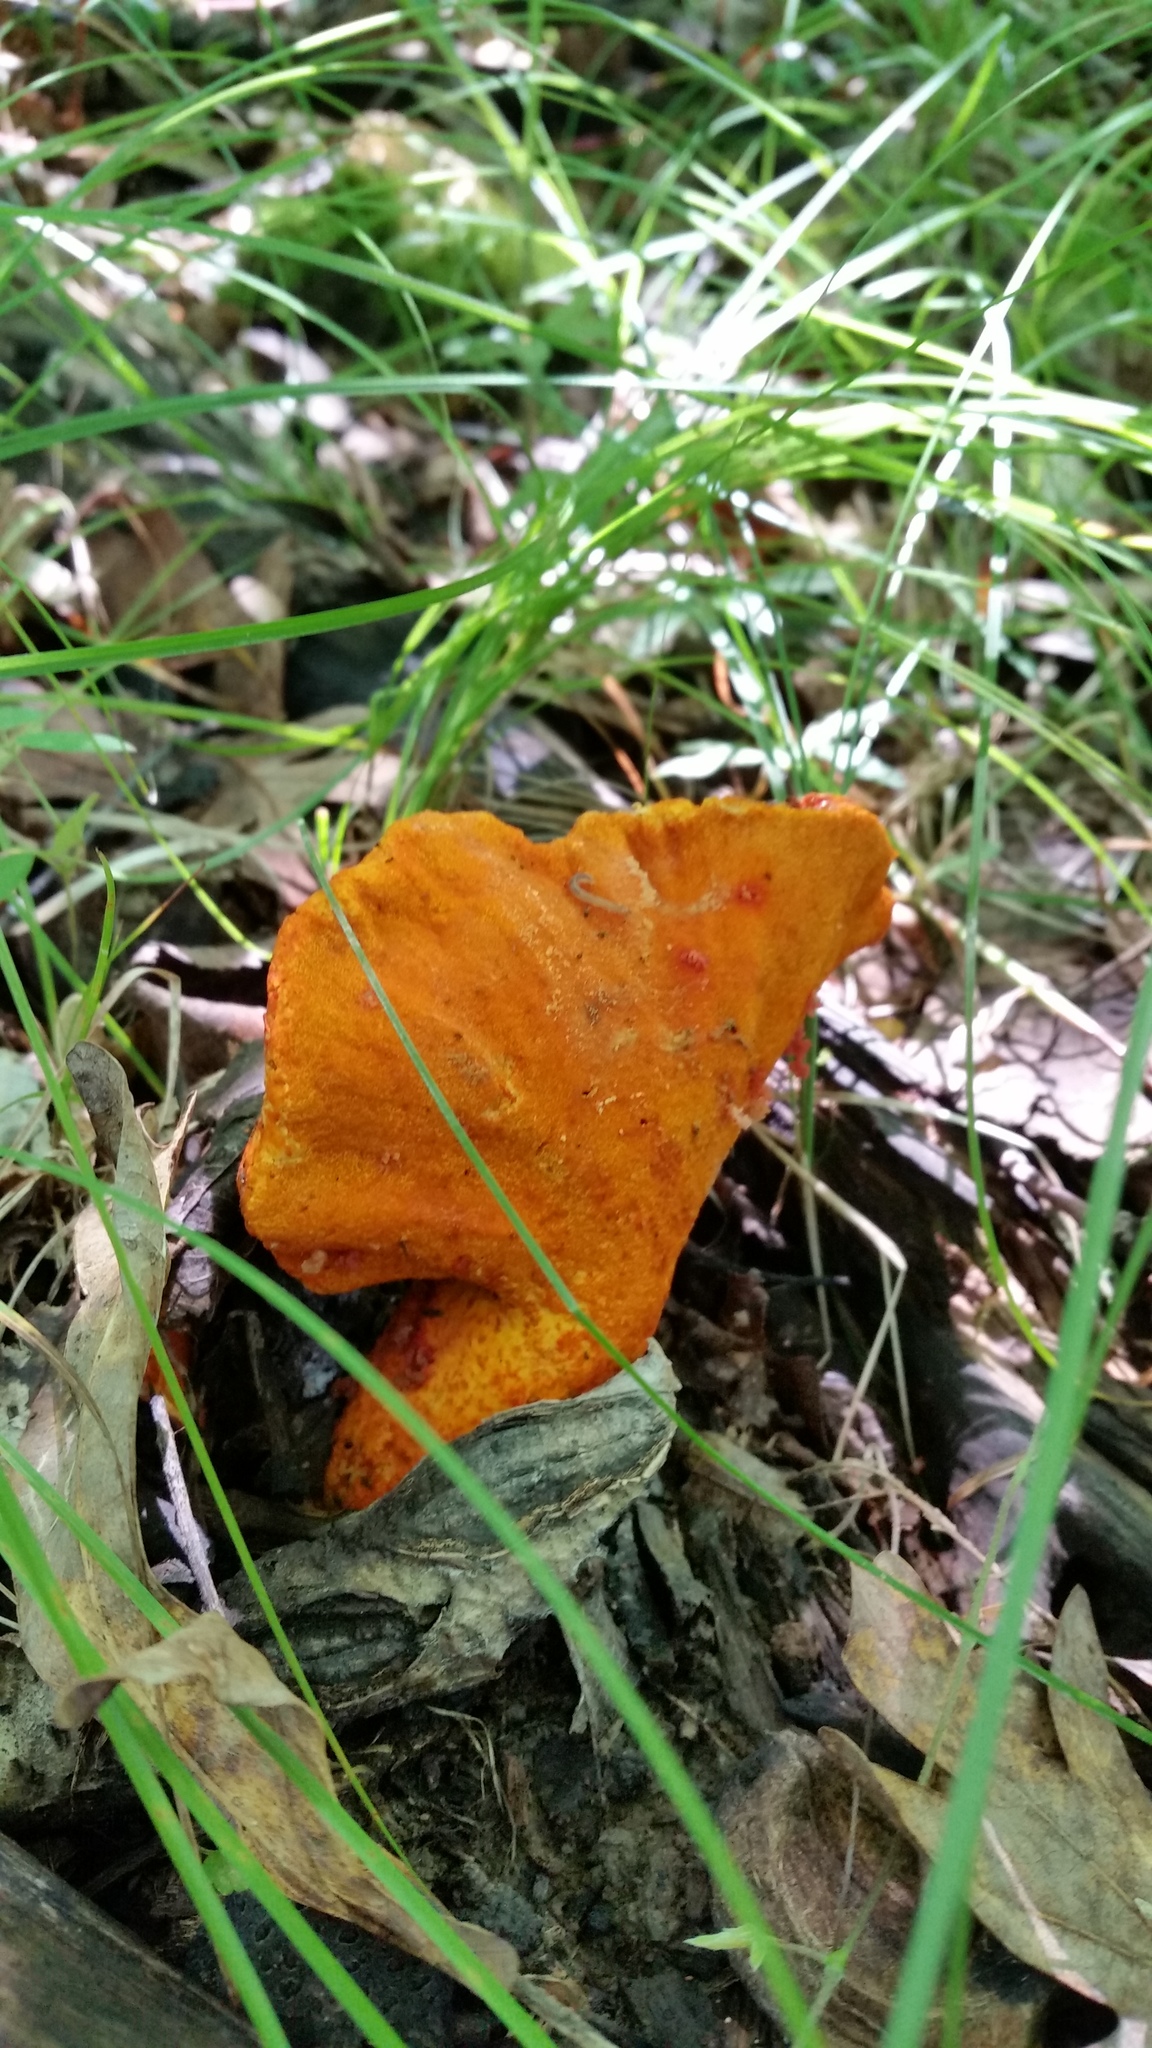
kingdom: Fungi
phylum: Ascomycota
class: Sordariomycetes
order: Hypocreales
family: Hypocreaceae
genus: Hypomyces
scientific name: Hypomyces lactifluorum
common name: Lobster mushroom
